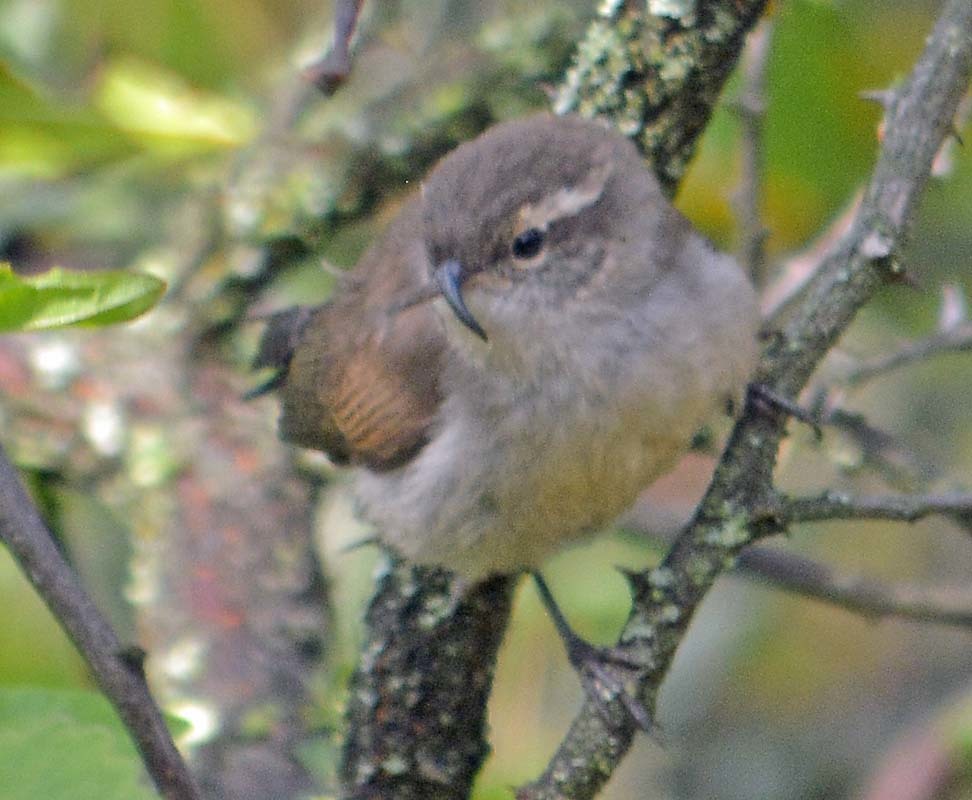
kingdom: Animalia
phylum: Chordata
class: Aves
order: Passeriformes
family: Troglodytidae
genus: Thryomanes
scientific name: Thryomanes bewickii
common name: Bewick's wren
